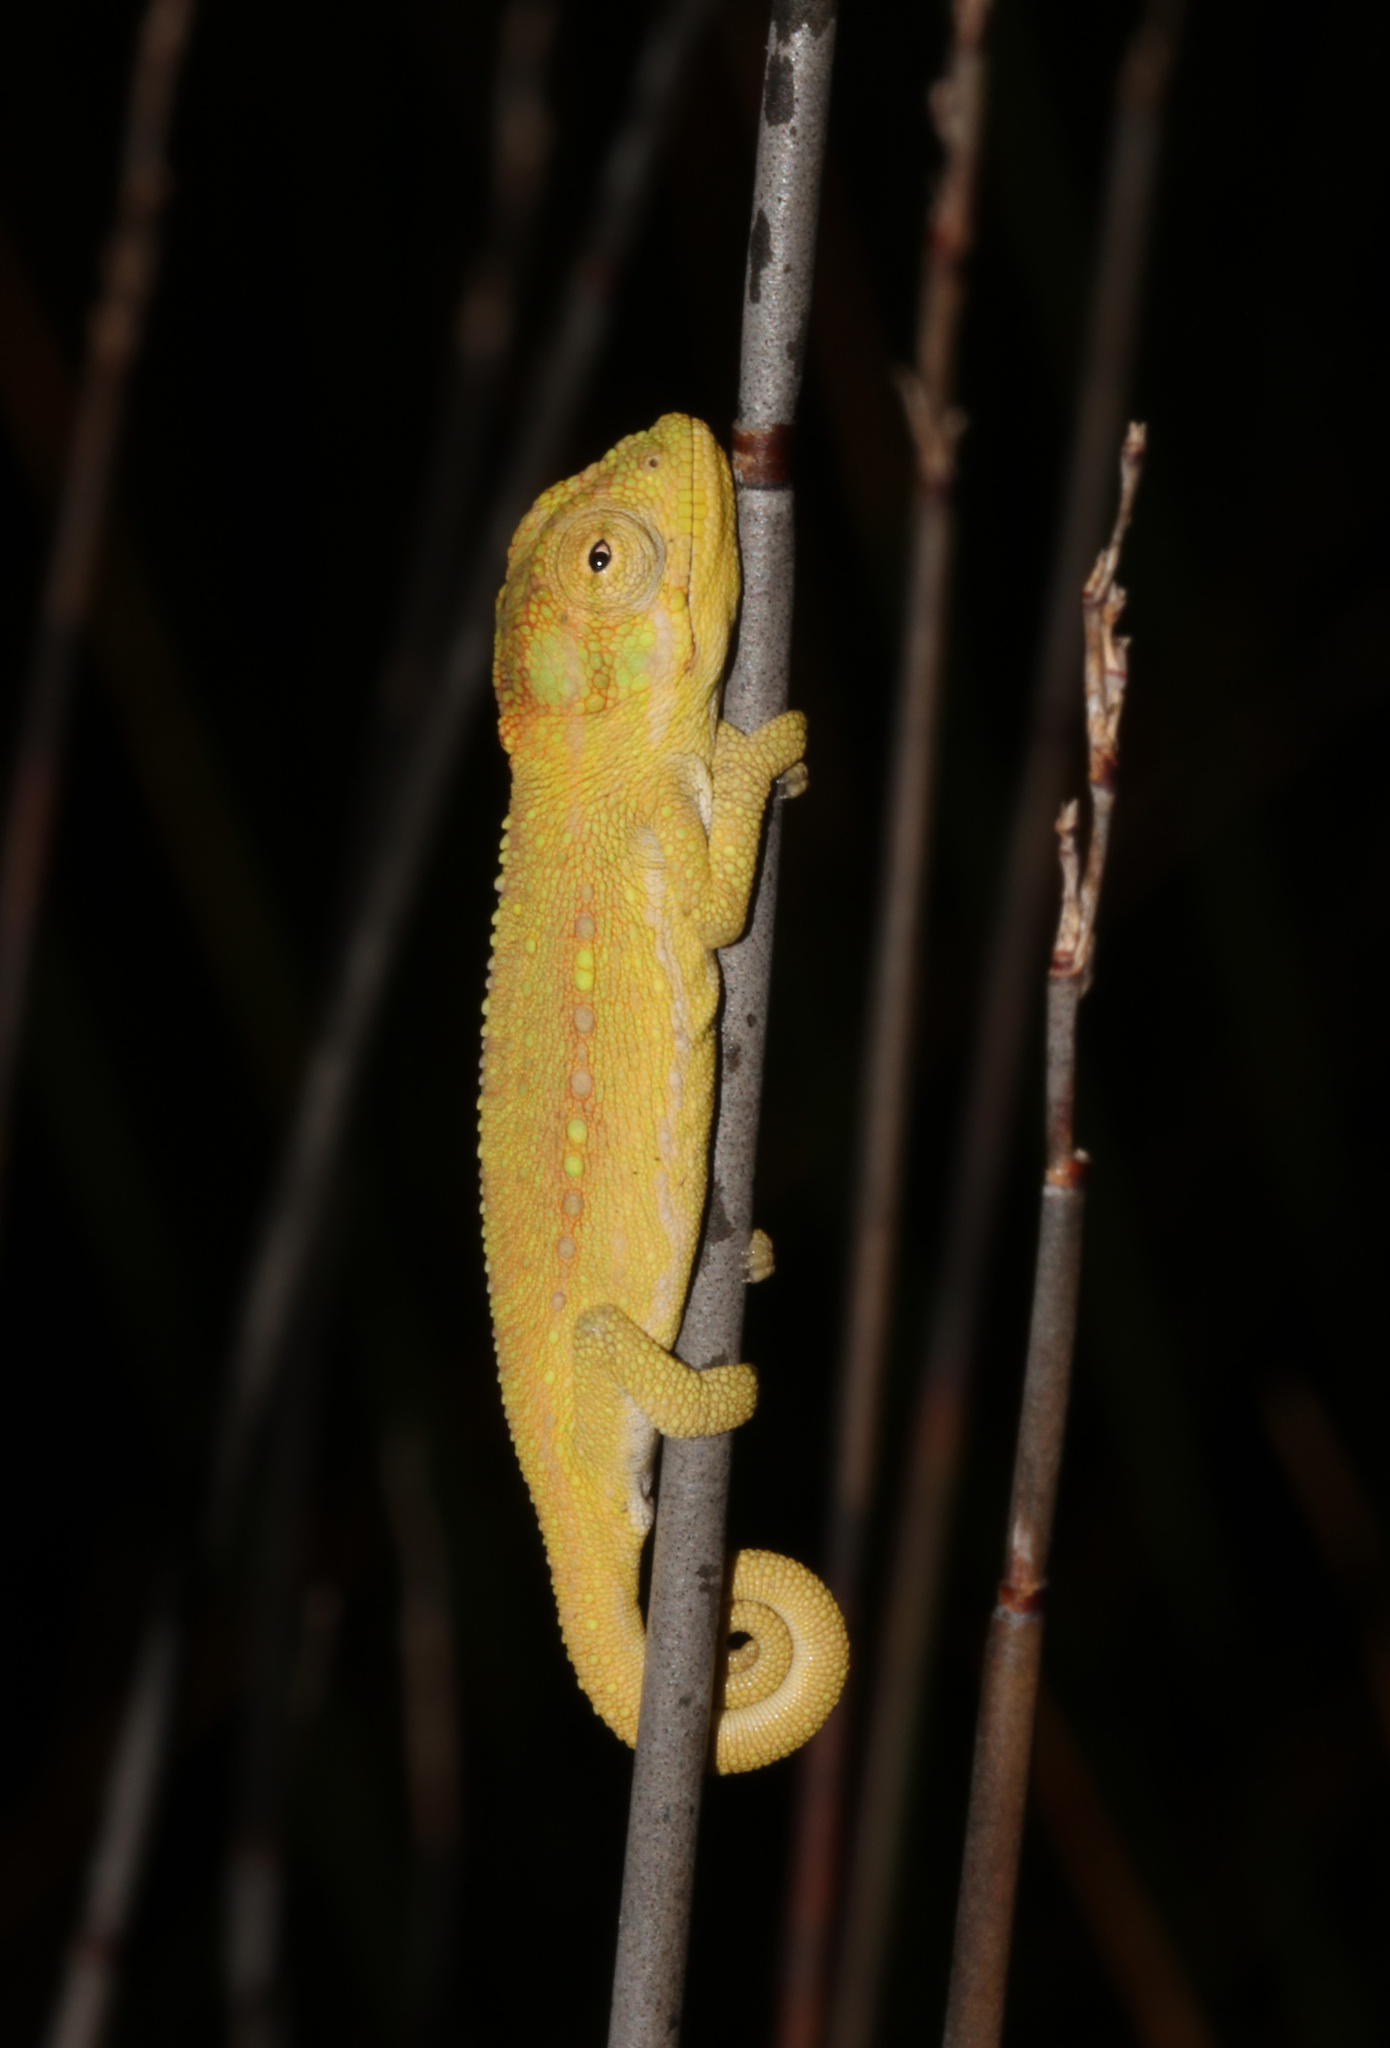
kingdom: Animalia
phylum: Chordata
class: Squamata
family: Chamaeleonidae
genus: Bradypodion
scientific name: Bradypodion pumilum
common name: Cape dwarf chameleon
